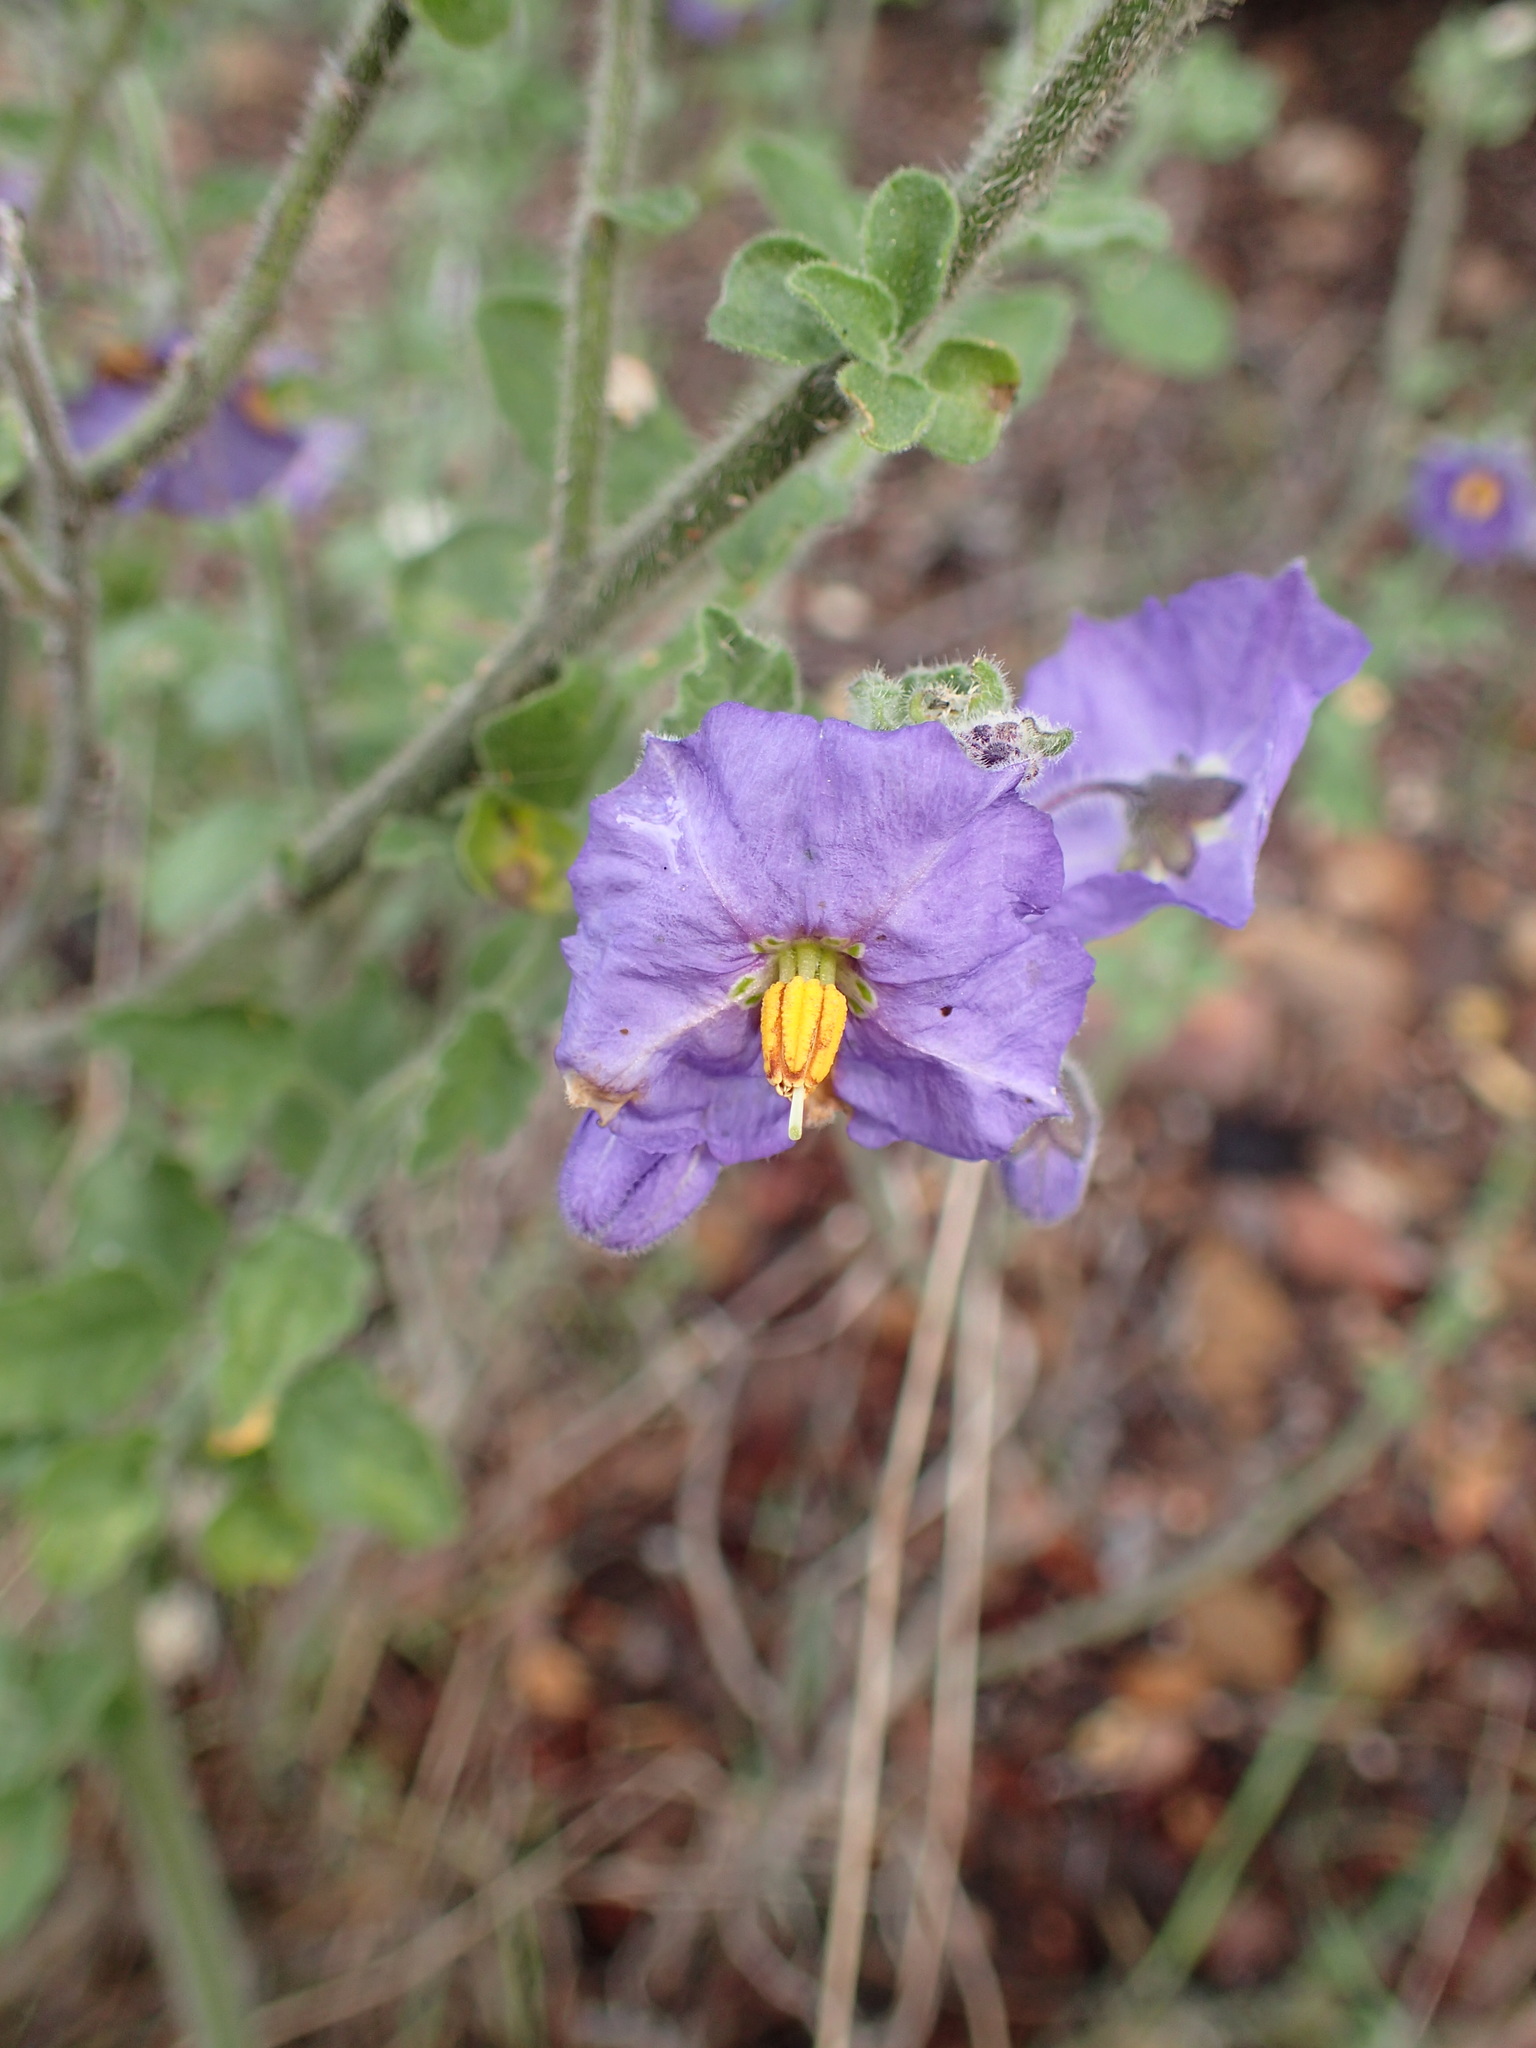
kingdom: Plantae
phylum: Tracheophyta
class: Magnoliopsida
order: Solanales
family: Solanaceae
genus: Solanum
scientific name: Solanum umbelliferum
